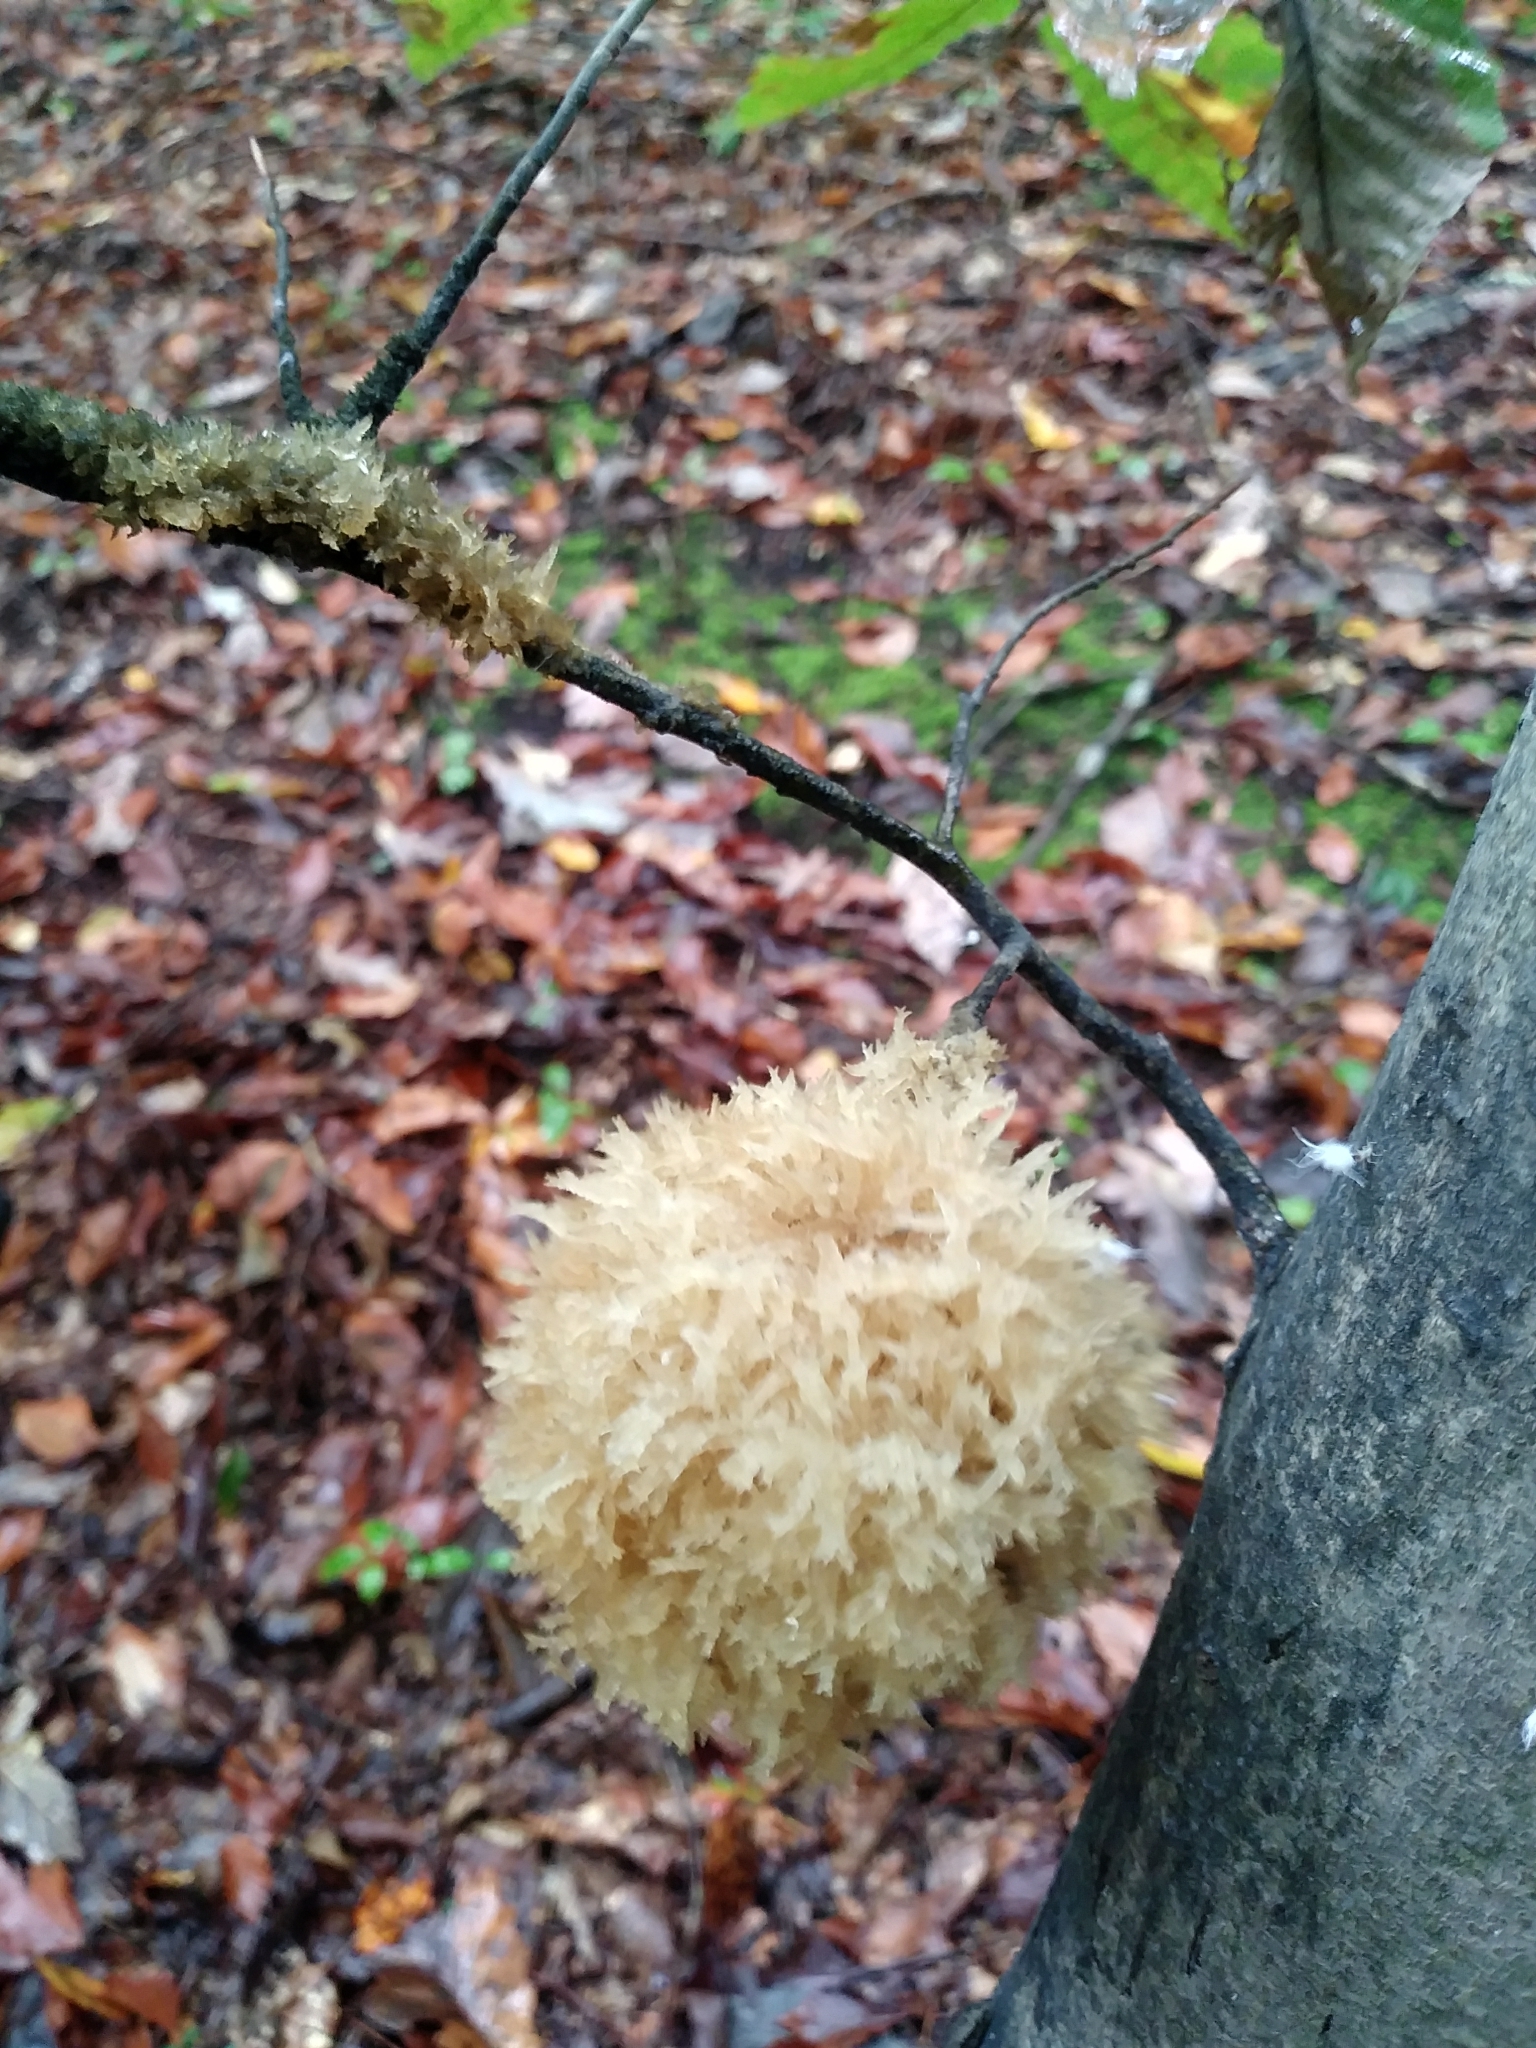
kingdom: Fungi
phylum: Ascomycota
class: Dothideomycetes
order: Capnodiales
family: Capnodiaceae
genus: Scorias
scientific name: Scorias spongiosa
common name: Black sooty mold
